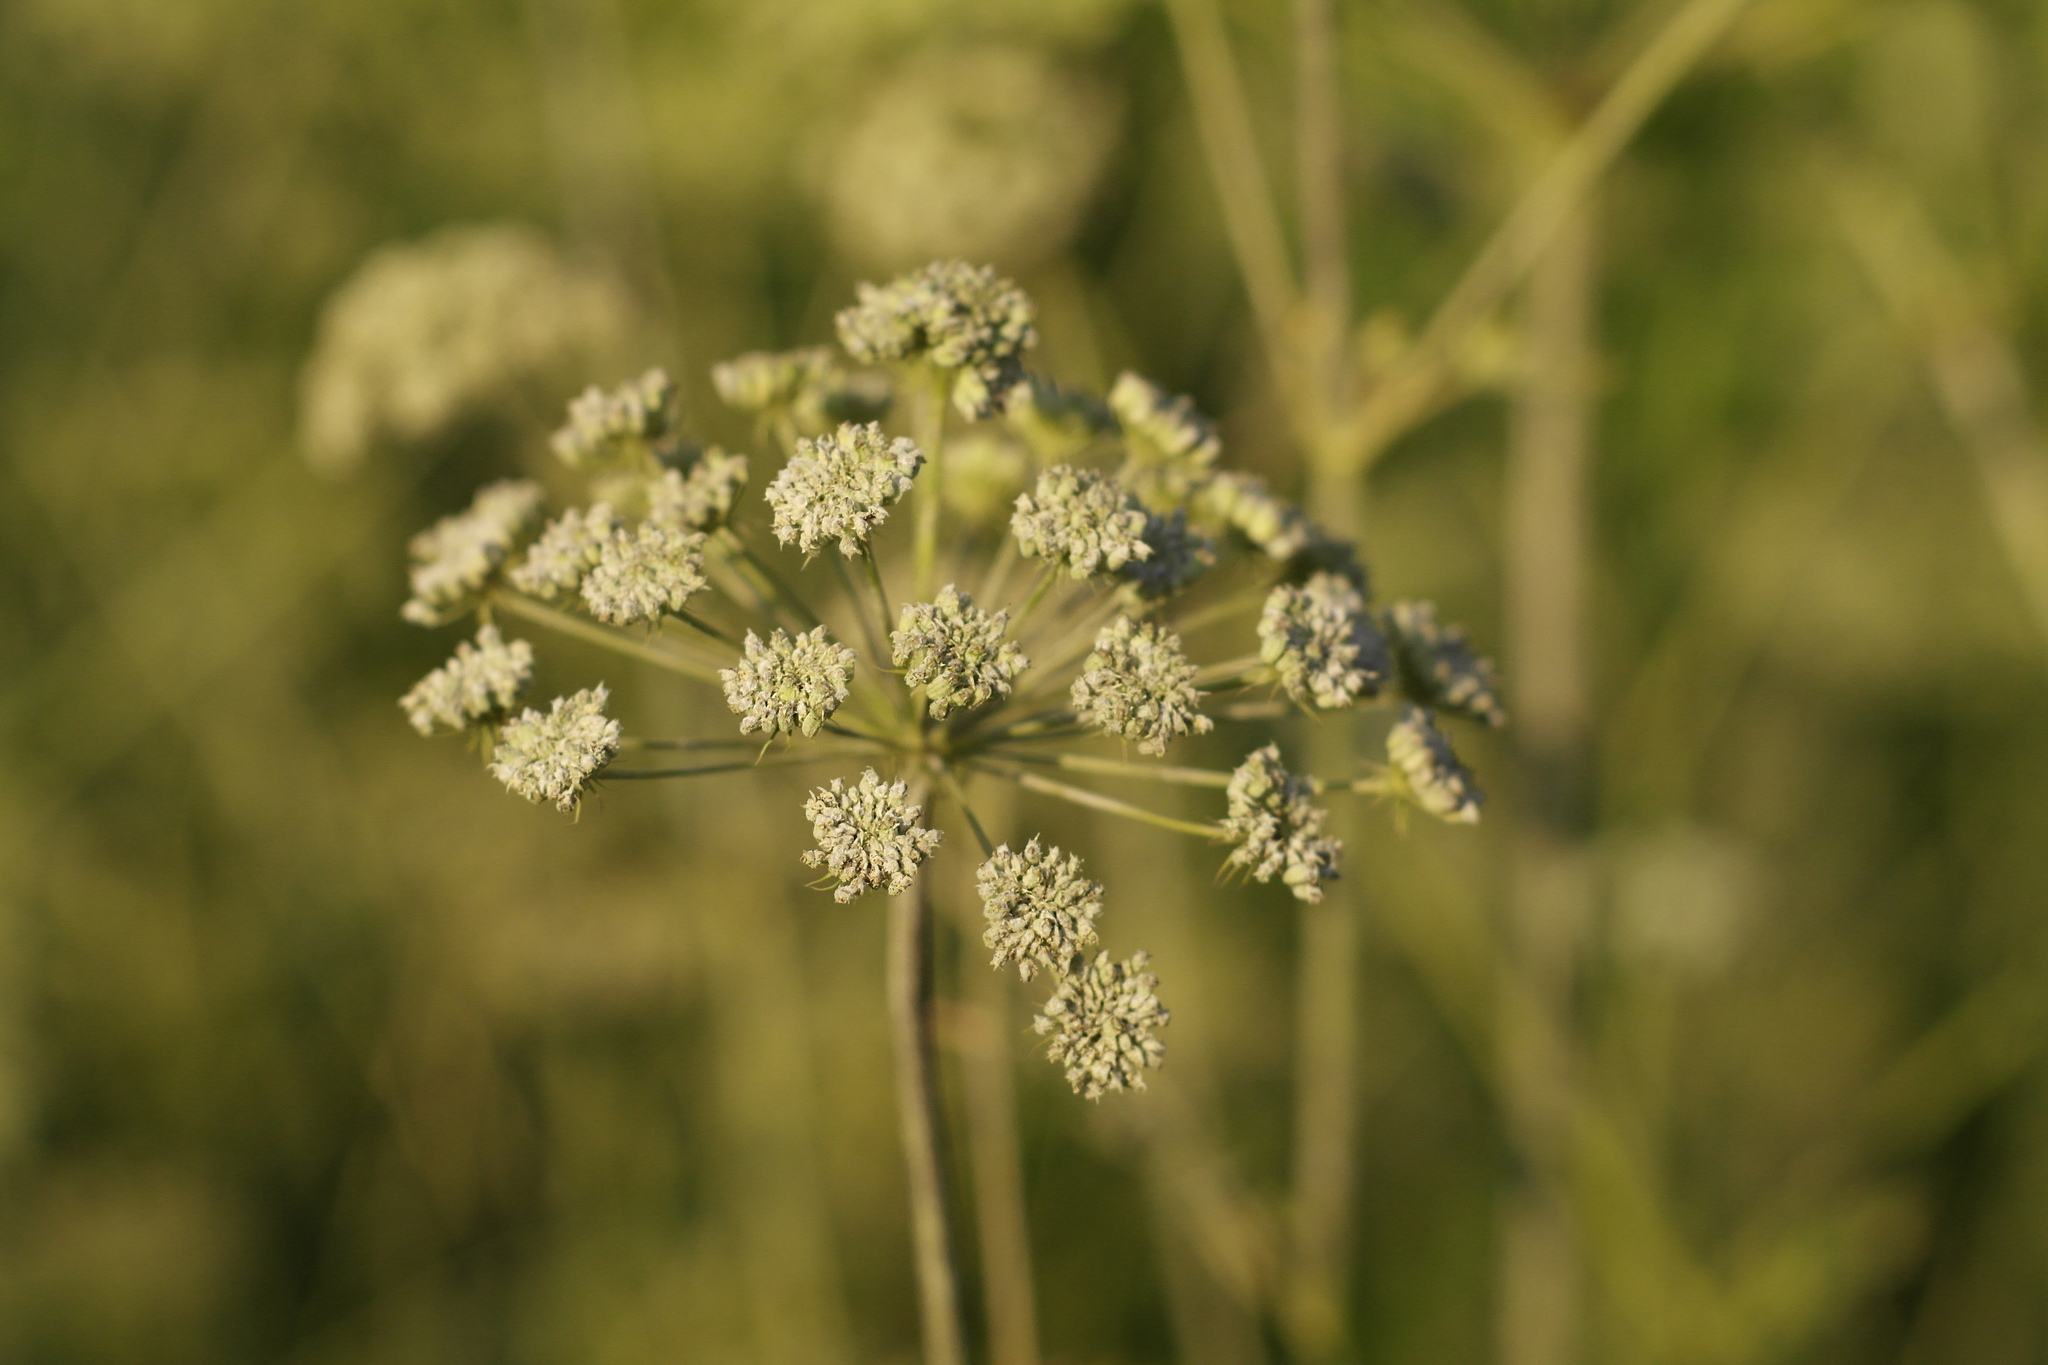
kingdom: Plantae
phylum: Tracheophyta
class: Magnoliopsida
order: Apiales
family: Apiaceae
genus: Seseli
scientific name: Seseli libanotis
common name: Mooncarrot
